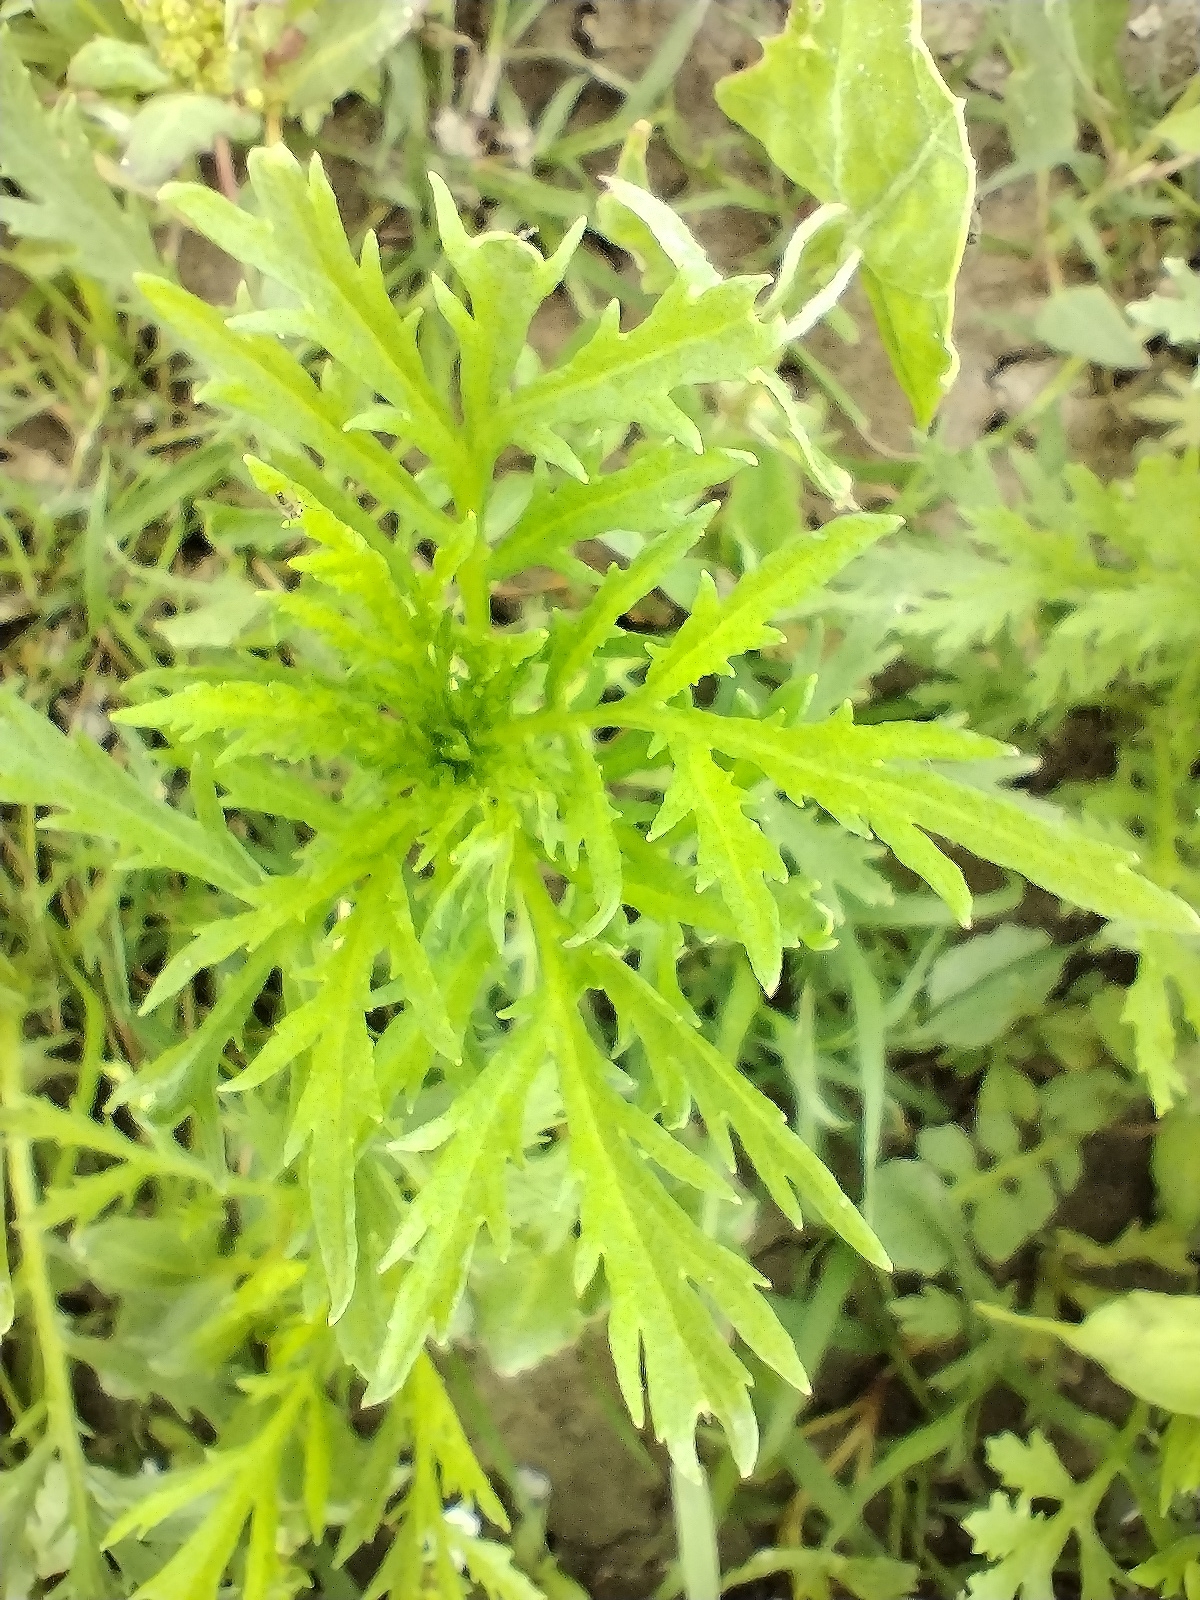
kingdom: Plantae
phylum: Tracheophyta
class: Magnoliopsida
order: Asterales
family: Asteraceae
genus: Artemisia
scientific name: Artemisia biennis
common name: Biennial wormwood
